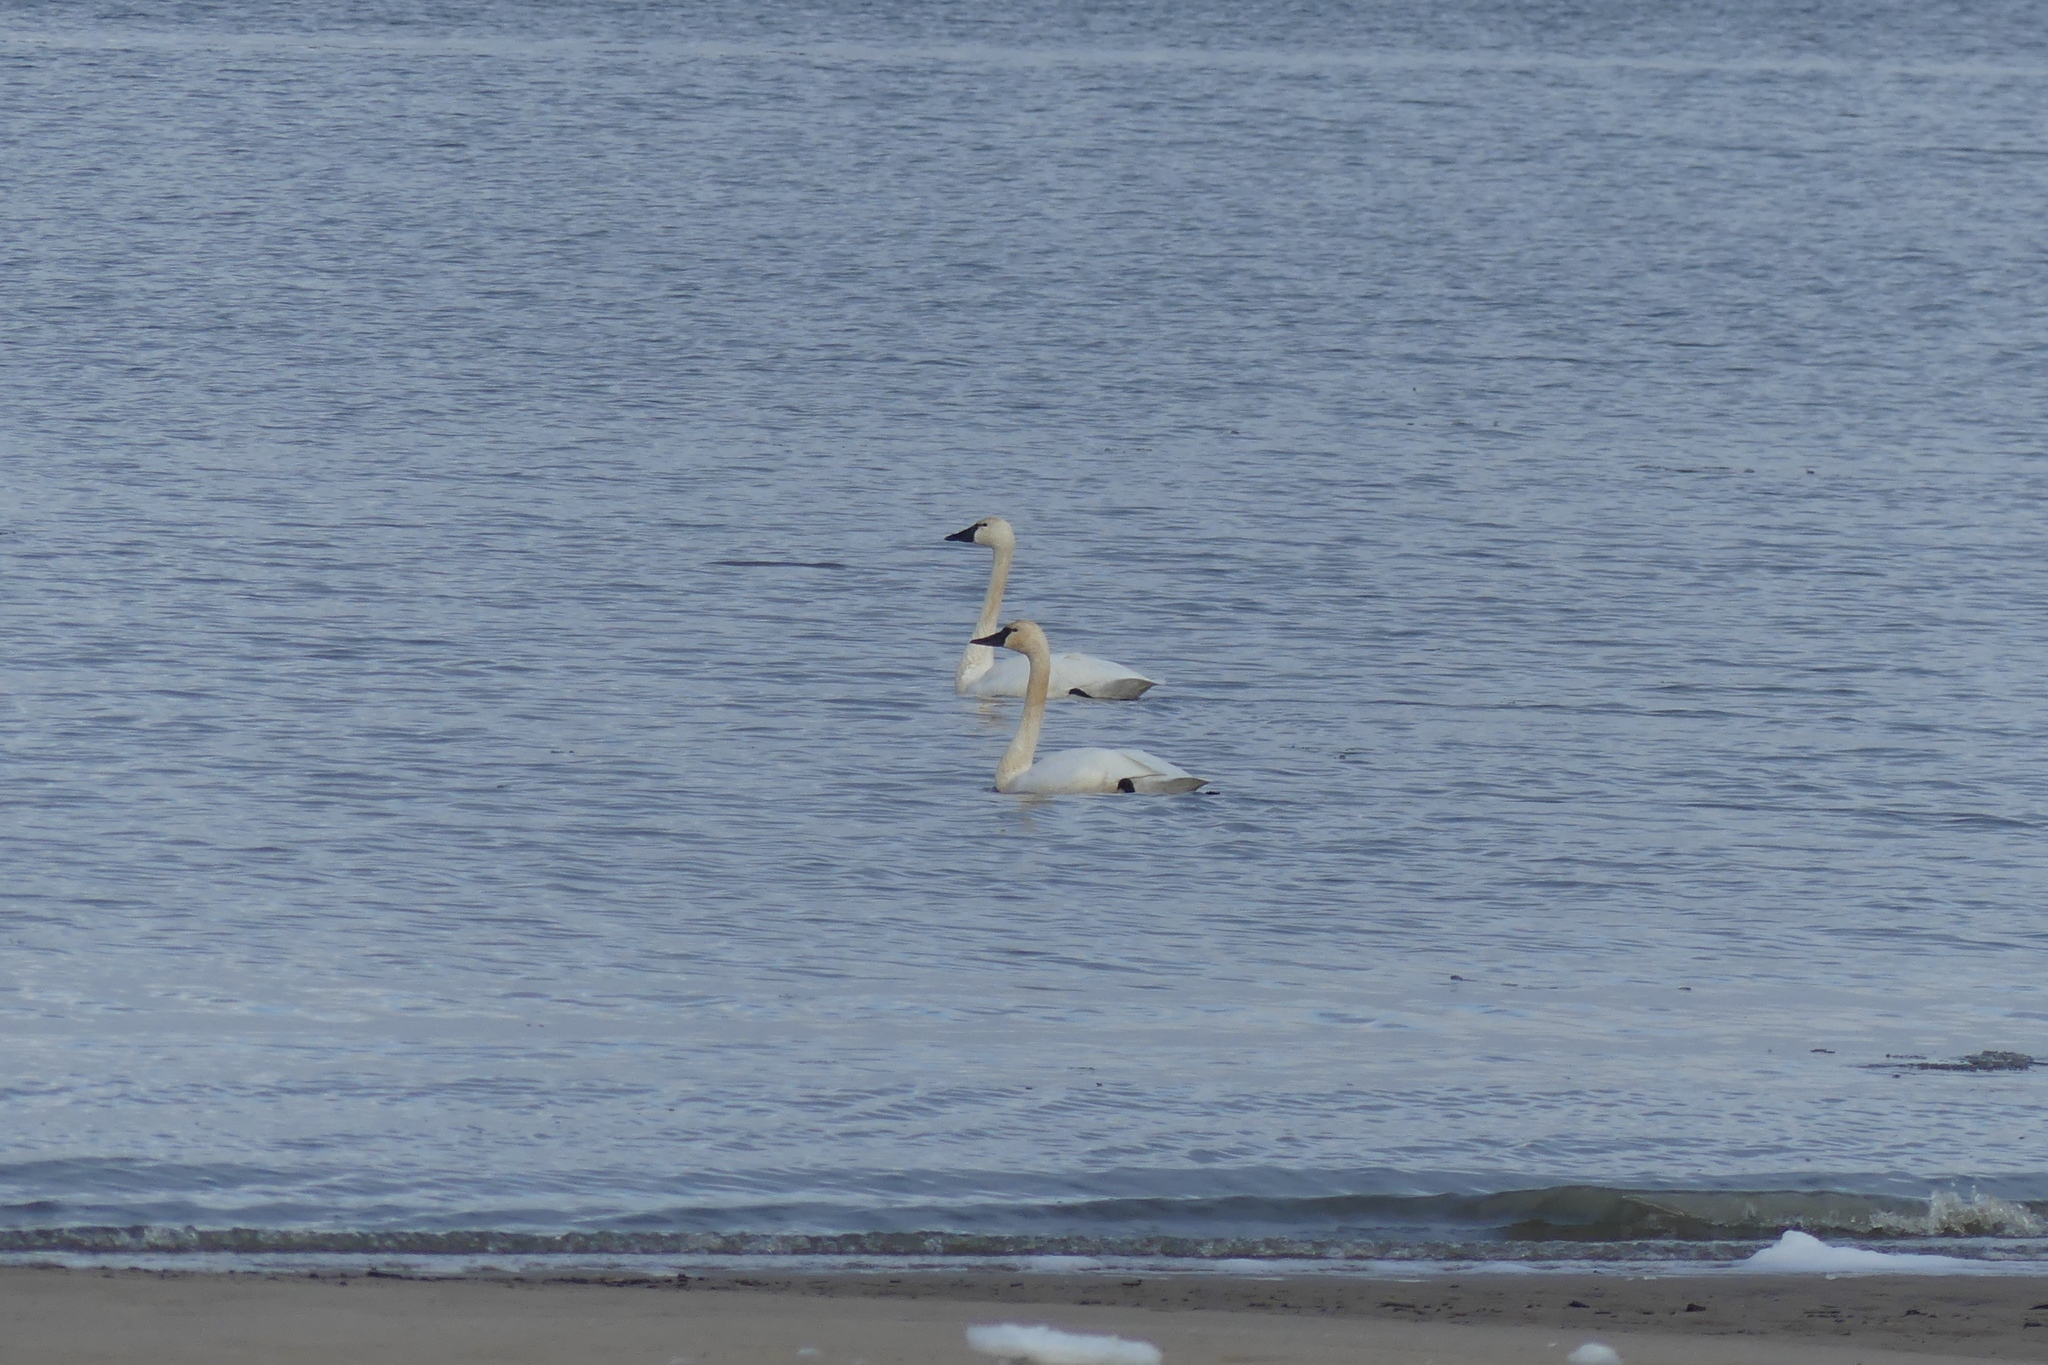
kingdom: Animalia
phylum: Chordata
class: Aves
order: Anseriformes
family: Anatidae
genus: Cygnus
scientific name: Cygnus columbianus
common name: Tundra swan
